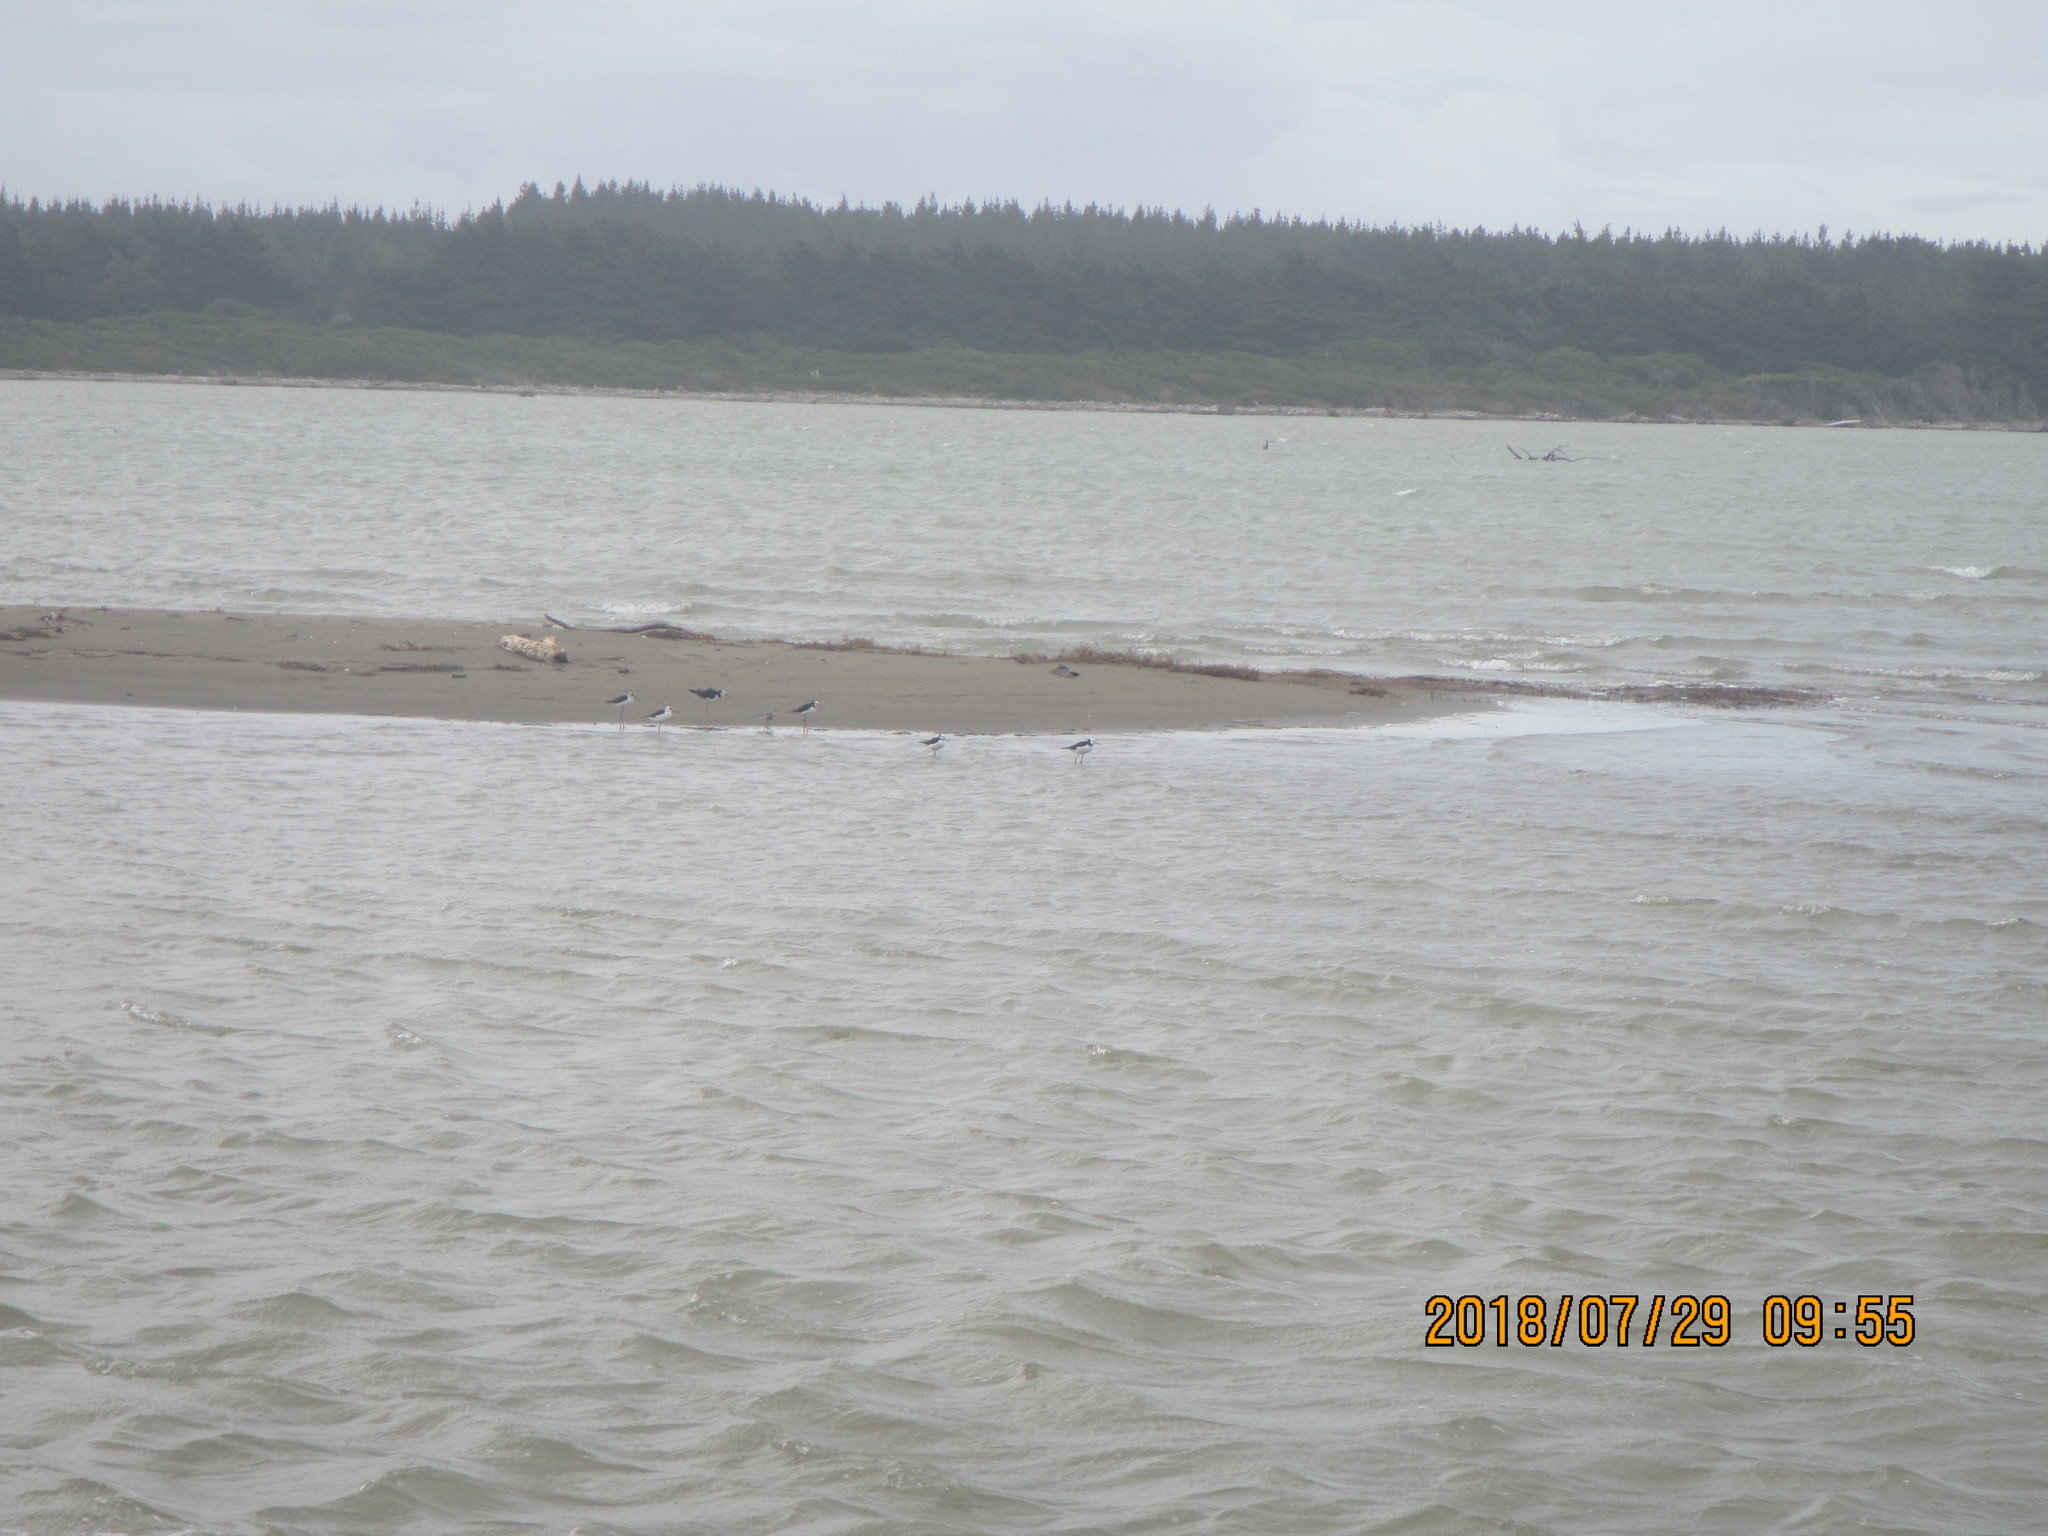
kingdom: Animalia
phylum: Chordata
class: Aves
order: Charadriiformes
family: Recurvirostridae
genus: Himantopus
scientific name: Himantopus leucocephalus
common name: White-headed stilt
